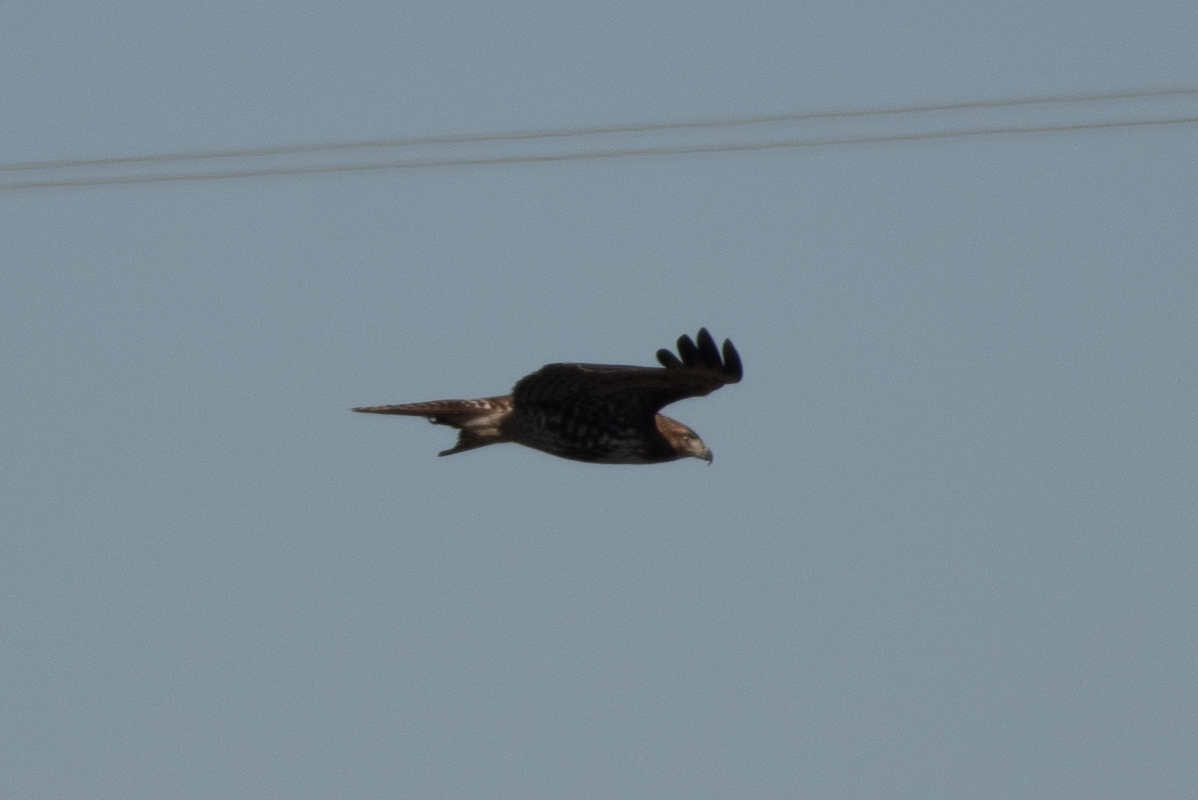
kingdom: Animalia
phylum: Chordata
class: Aves
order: Accipitriformes
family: Accipitridae
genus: Buteo
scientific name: Buteo jamaicensis
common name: Red-tailed hawk
